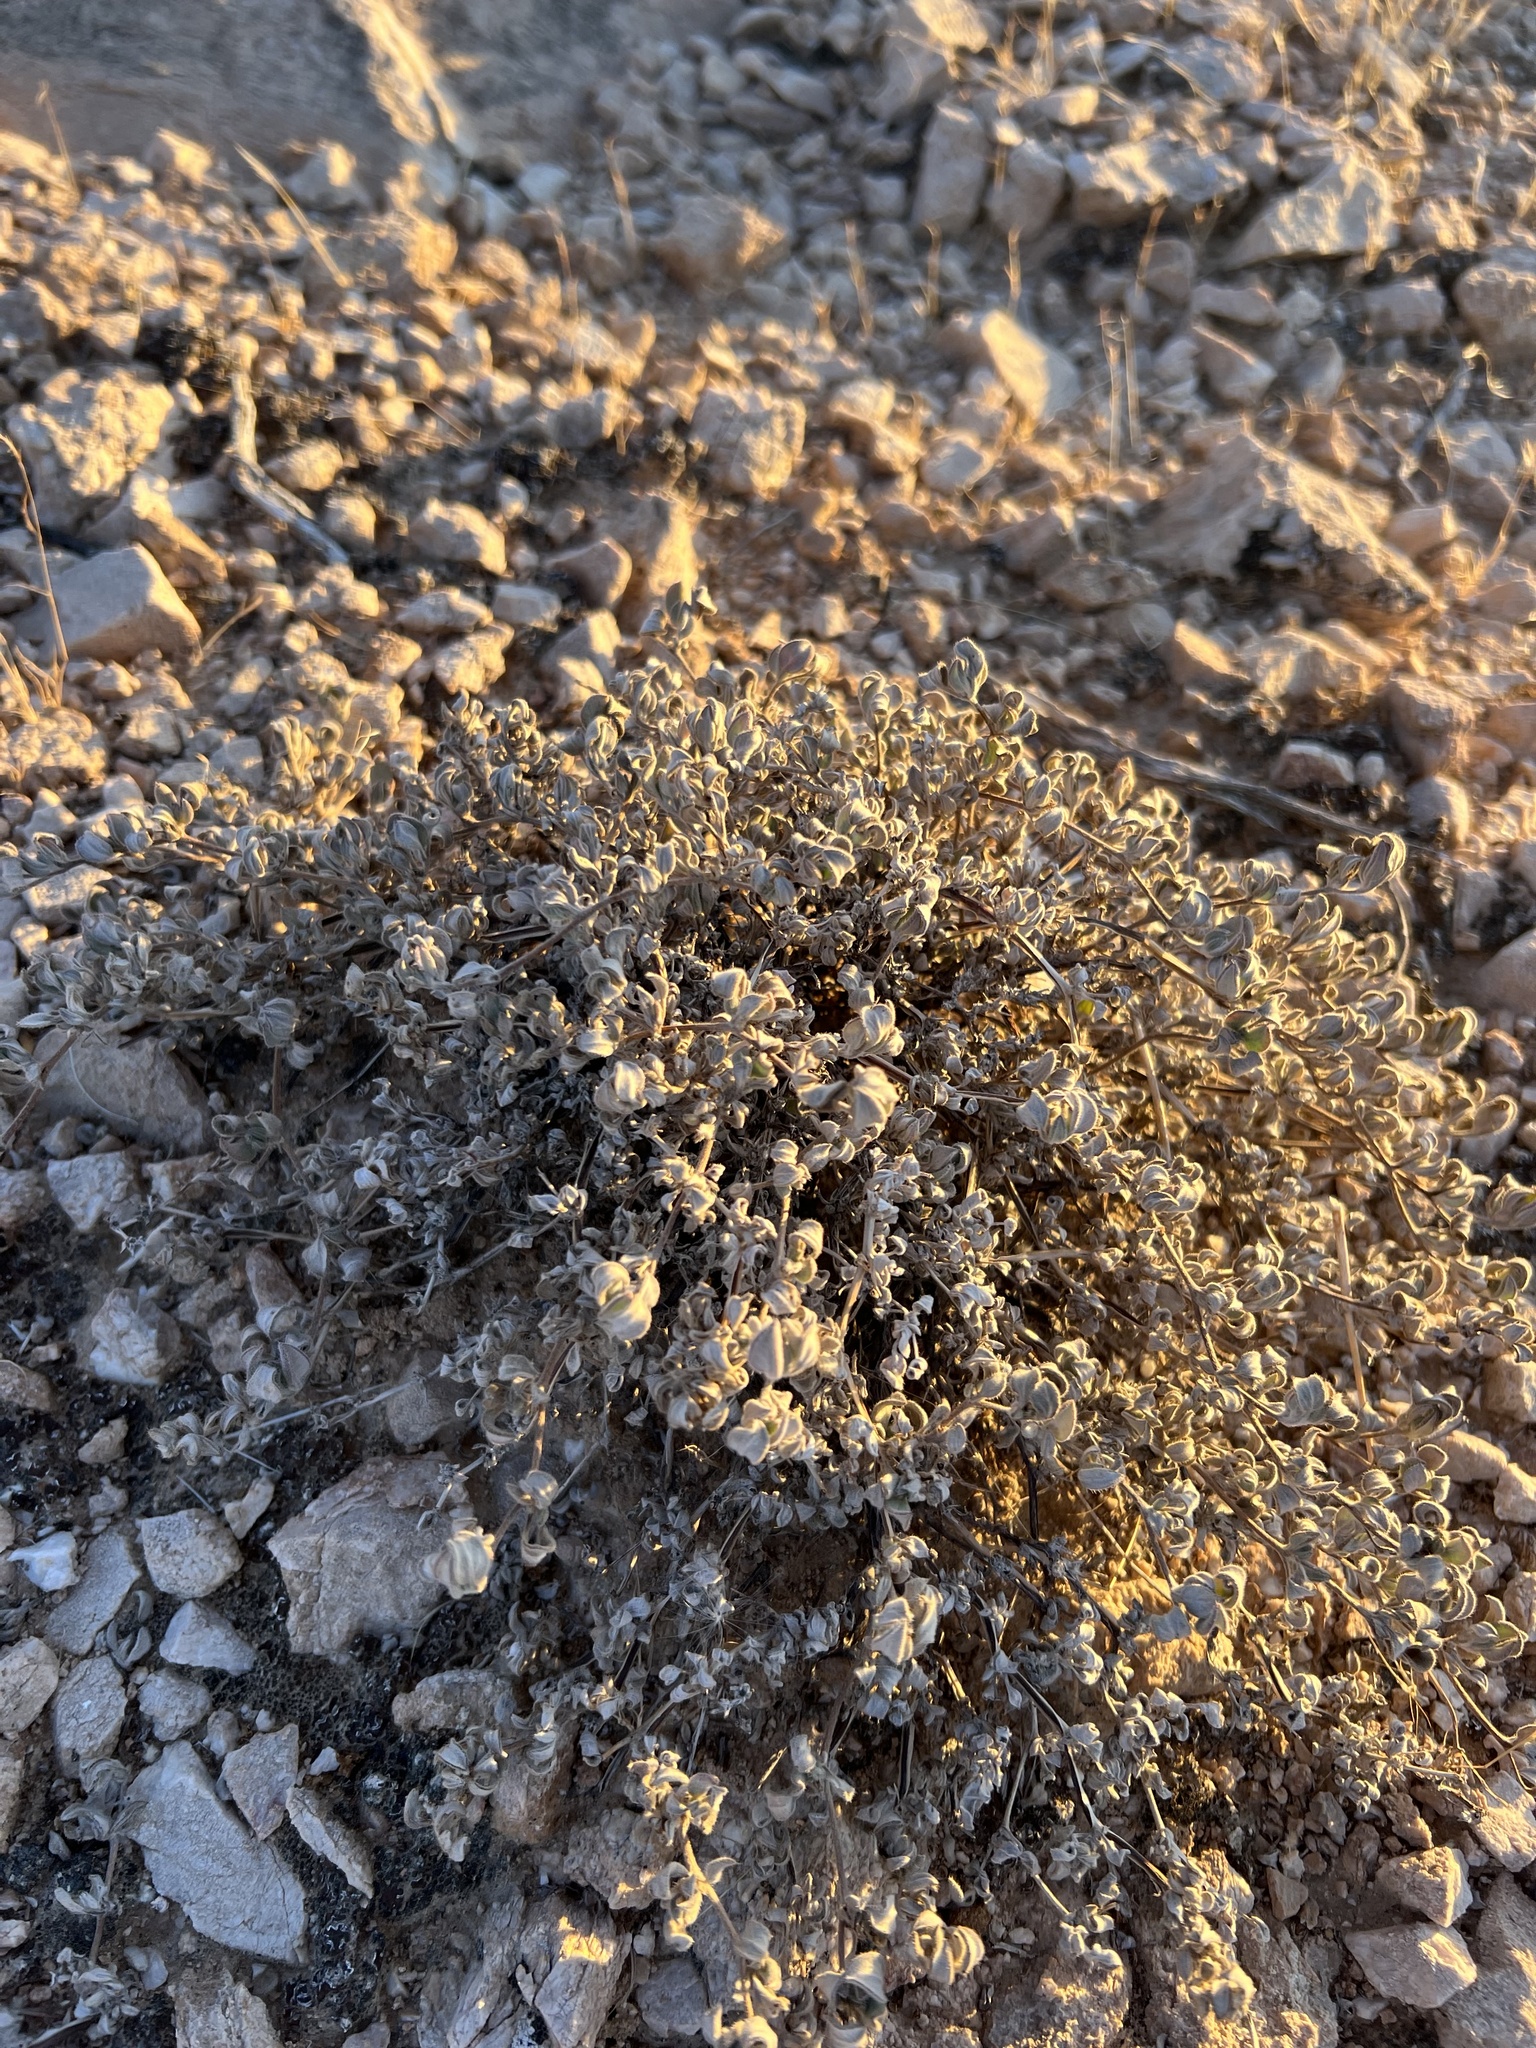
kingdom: Plantae
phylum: Tracheophyta
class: Magnoliopsida
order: Boraginales
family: Ehretiaceae
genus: Tiquilia
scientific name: Tiquilia canescens
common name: Hairy tiquilia
